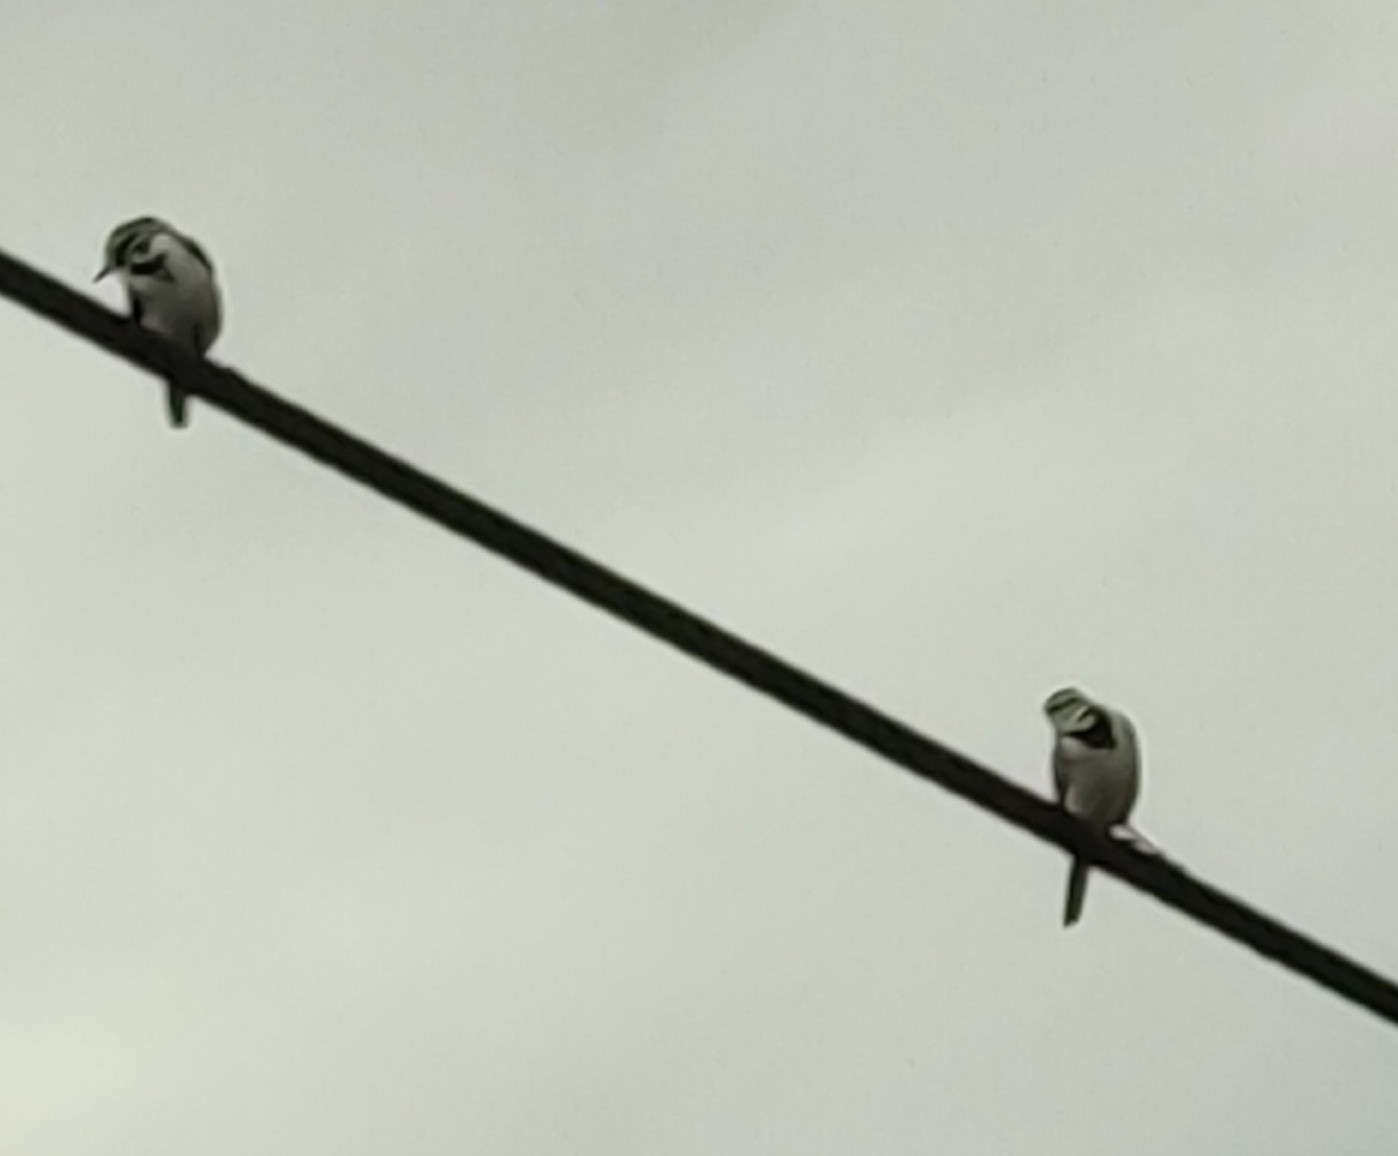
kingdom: Animalia
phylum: Chordata
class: Aves
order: Passeriformes
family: Motacillidae
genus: Motacilla
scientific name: Motacilla alba
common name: White wagtail
